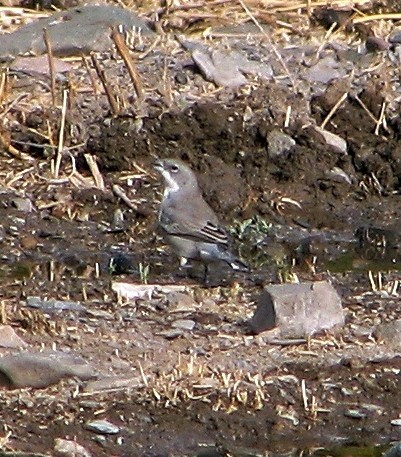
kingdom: Animalia
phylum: Chordata
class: Aves
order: Passeriformes
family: Thraupidae
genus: Diuca
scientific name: Diuca diuca
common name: Common diuca finch
